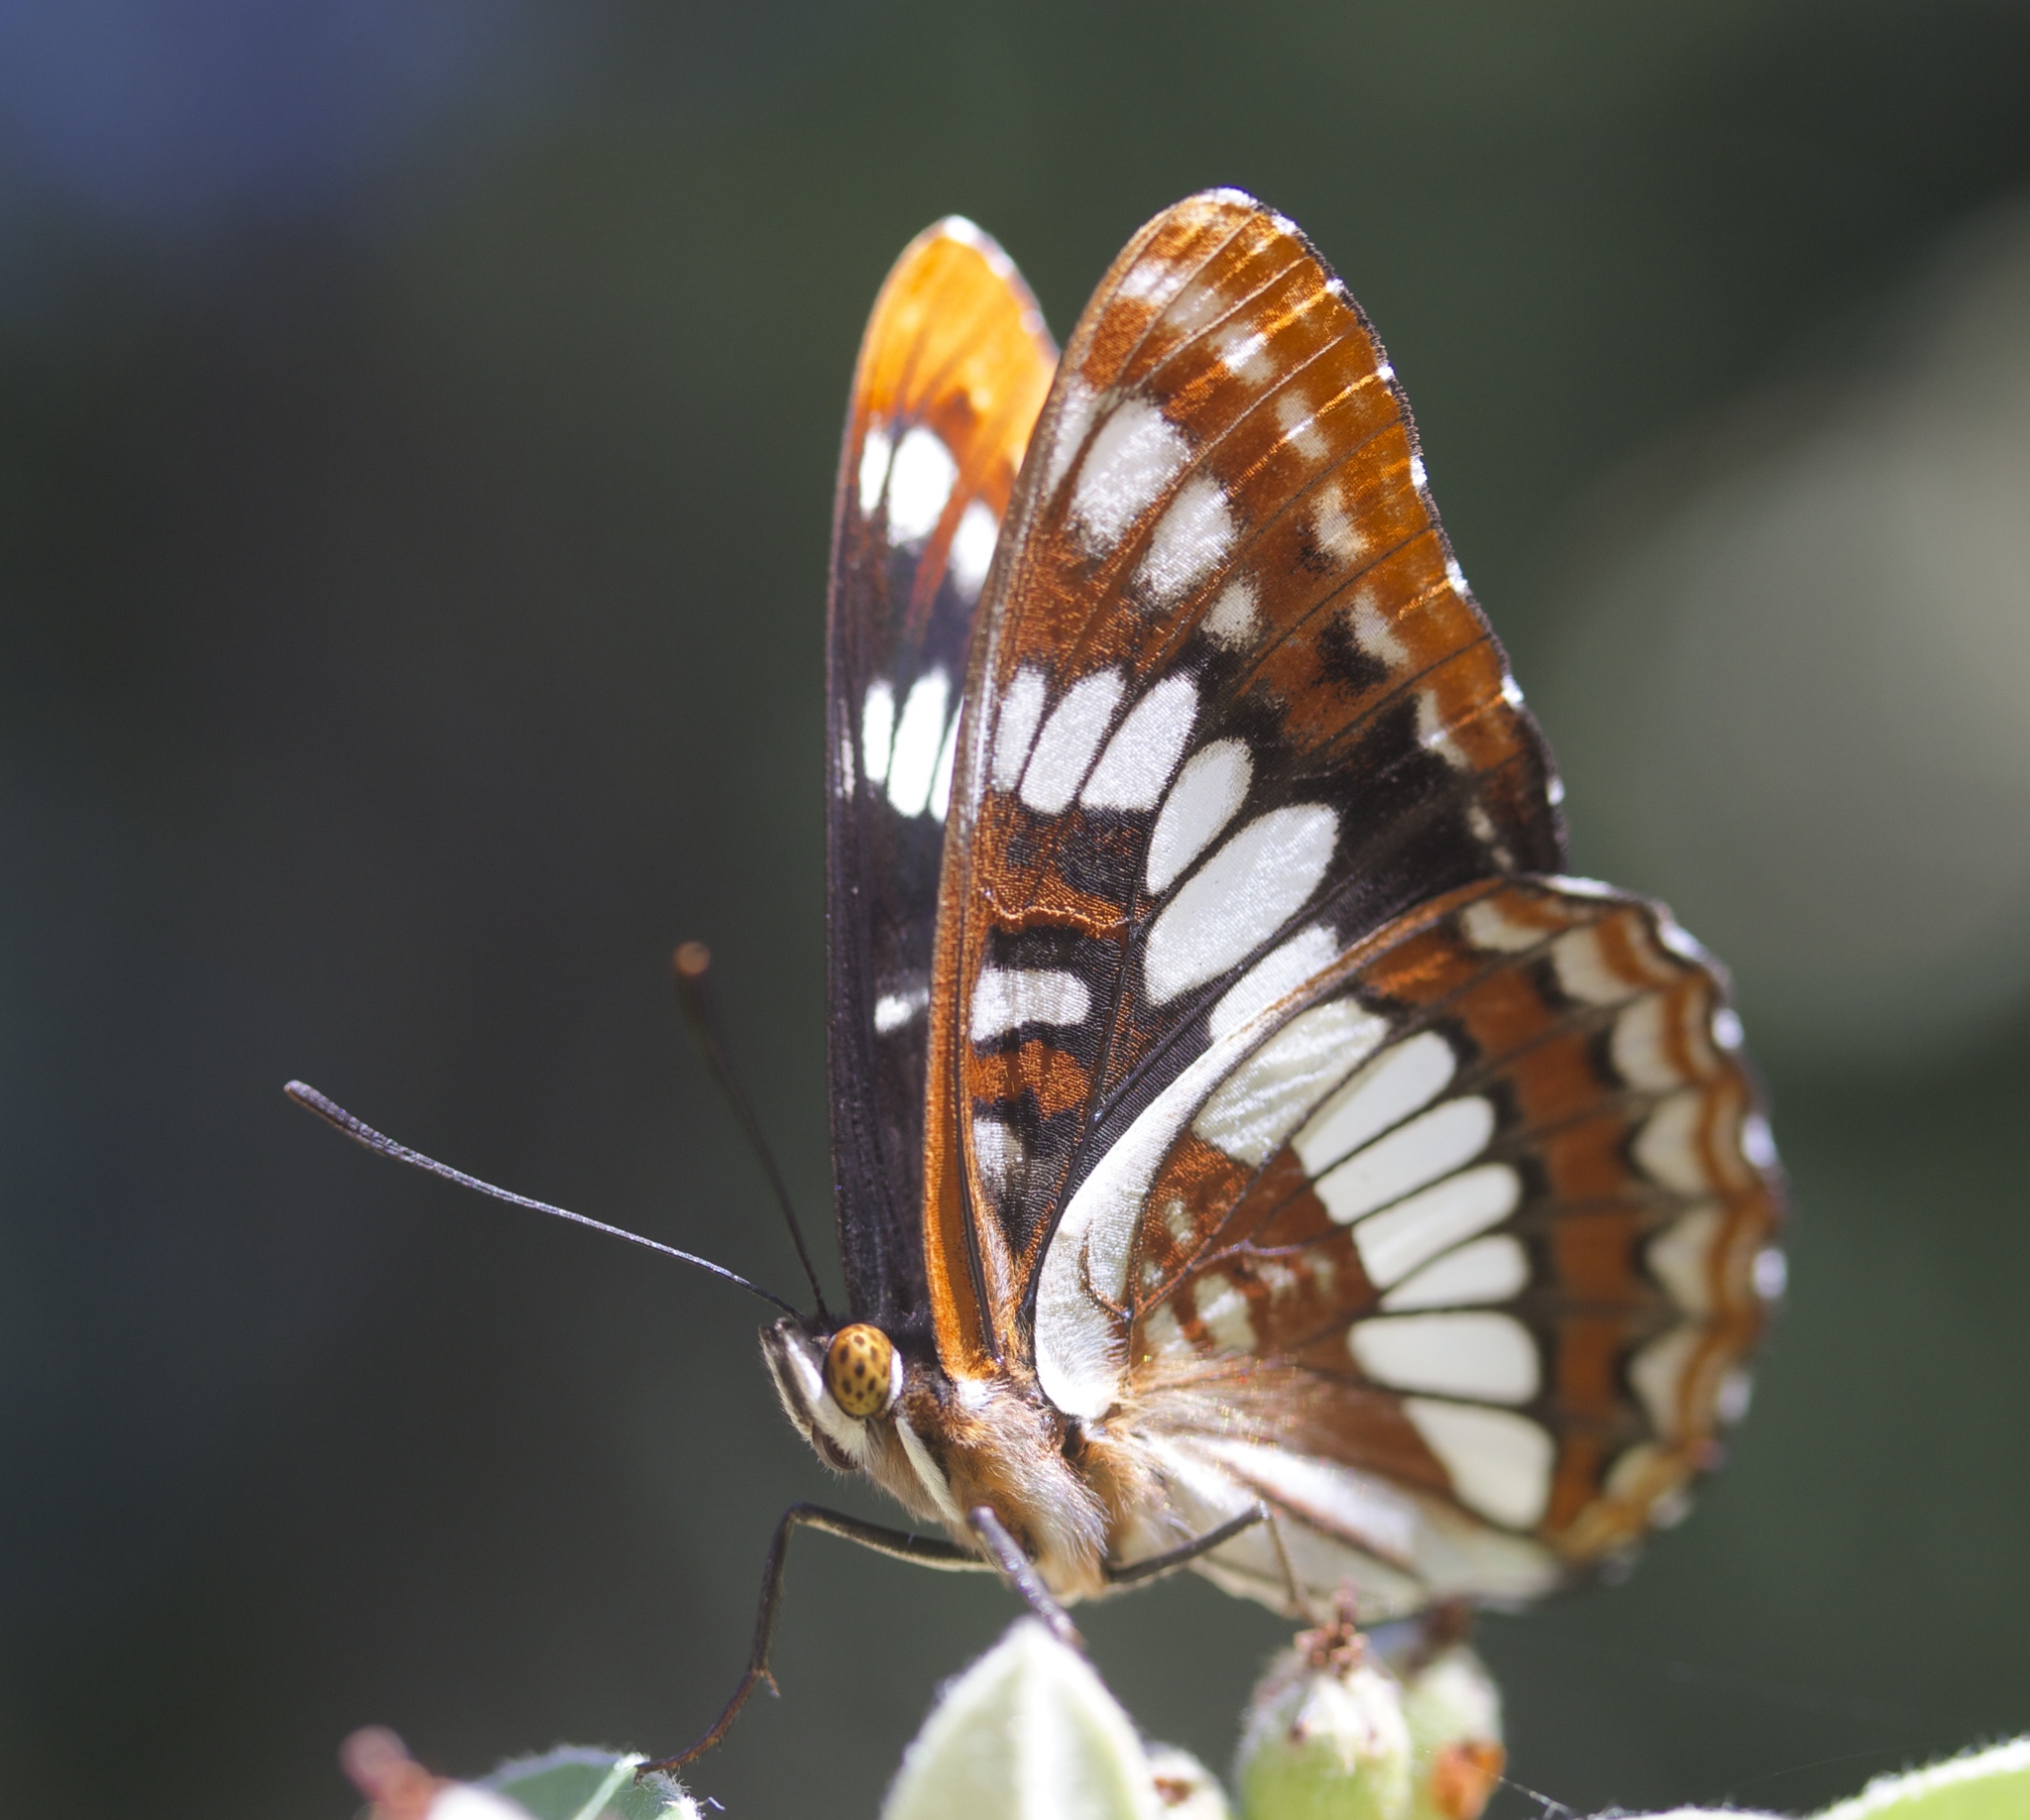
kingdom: Animalia
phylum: Arthropoda
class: Insecta
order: Lepidoptera
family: Nymphalidae
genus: Limenitis
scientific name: Limenitis lorquini
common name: Lorquin's admiral
